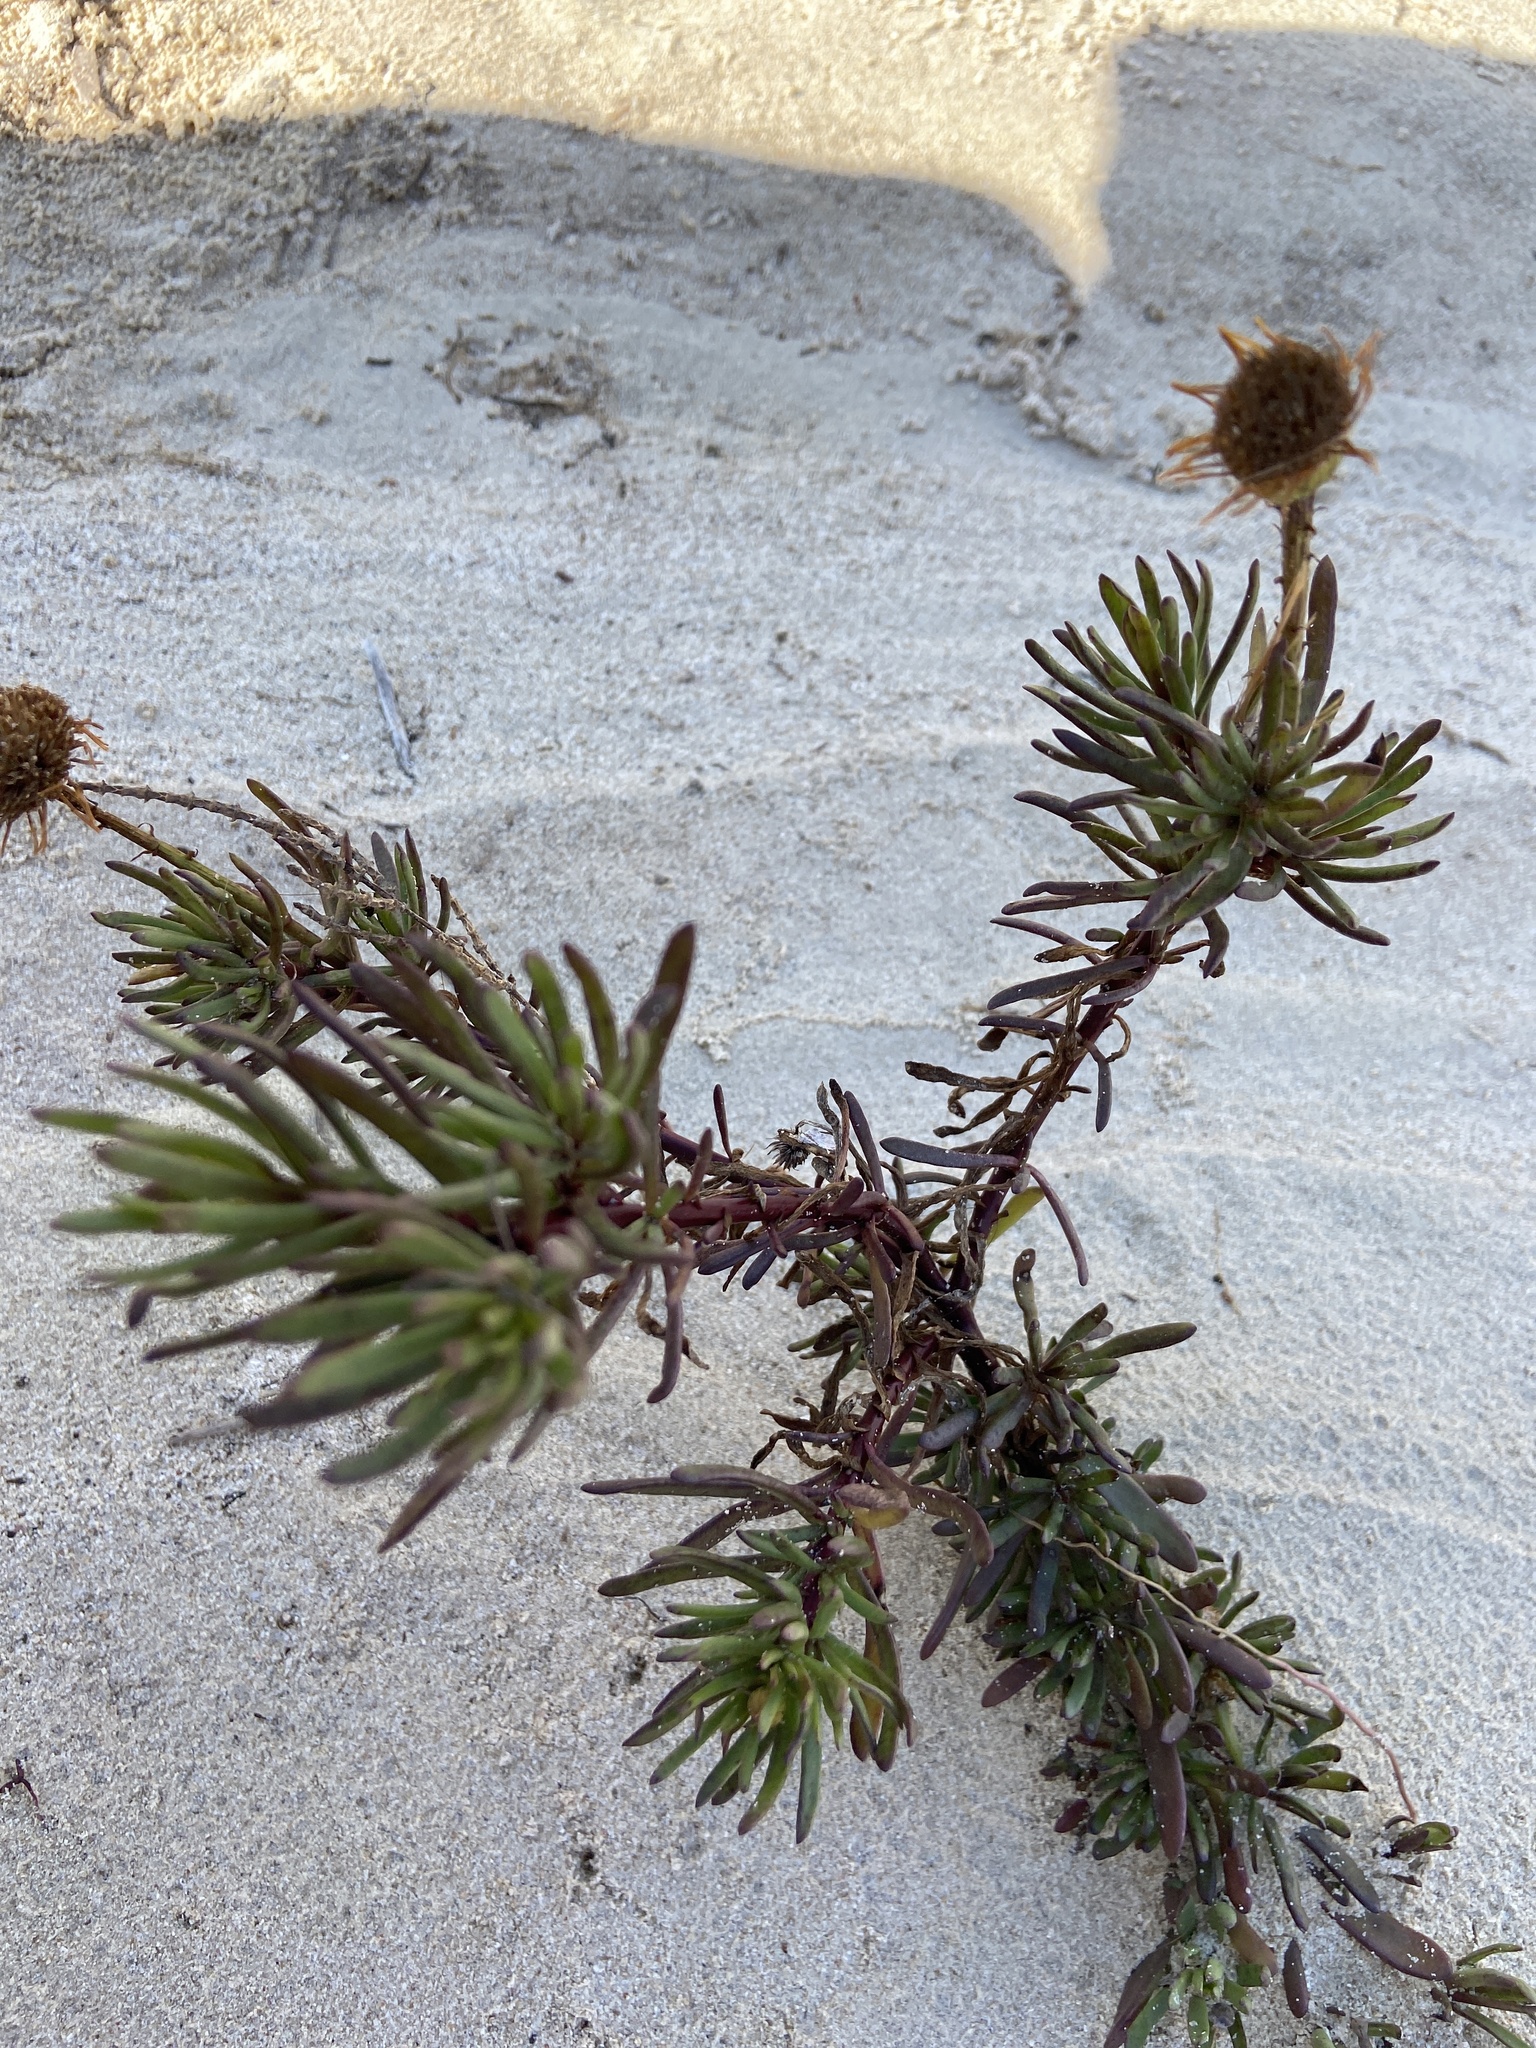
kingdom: Plantae
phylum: Tracheophyta
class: Magnoliopsida
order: Asterales
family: Asteraceae
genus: Limbarda
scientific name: Limbarda crithmoides
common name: Golden samphire
